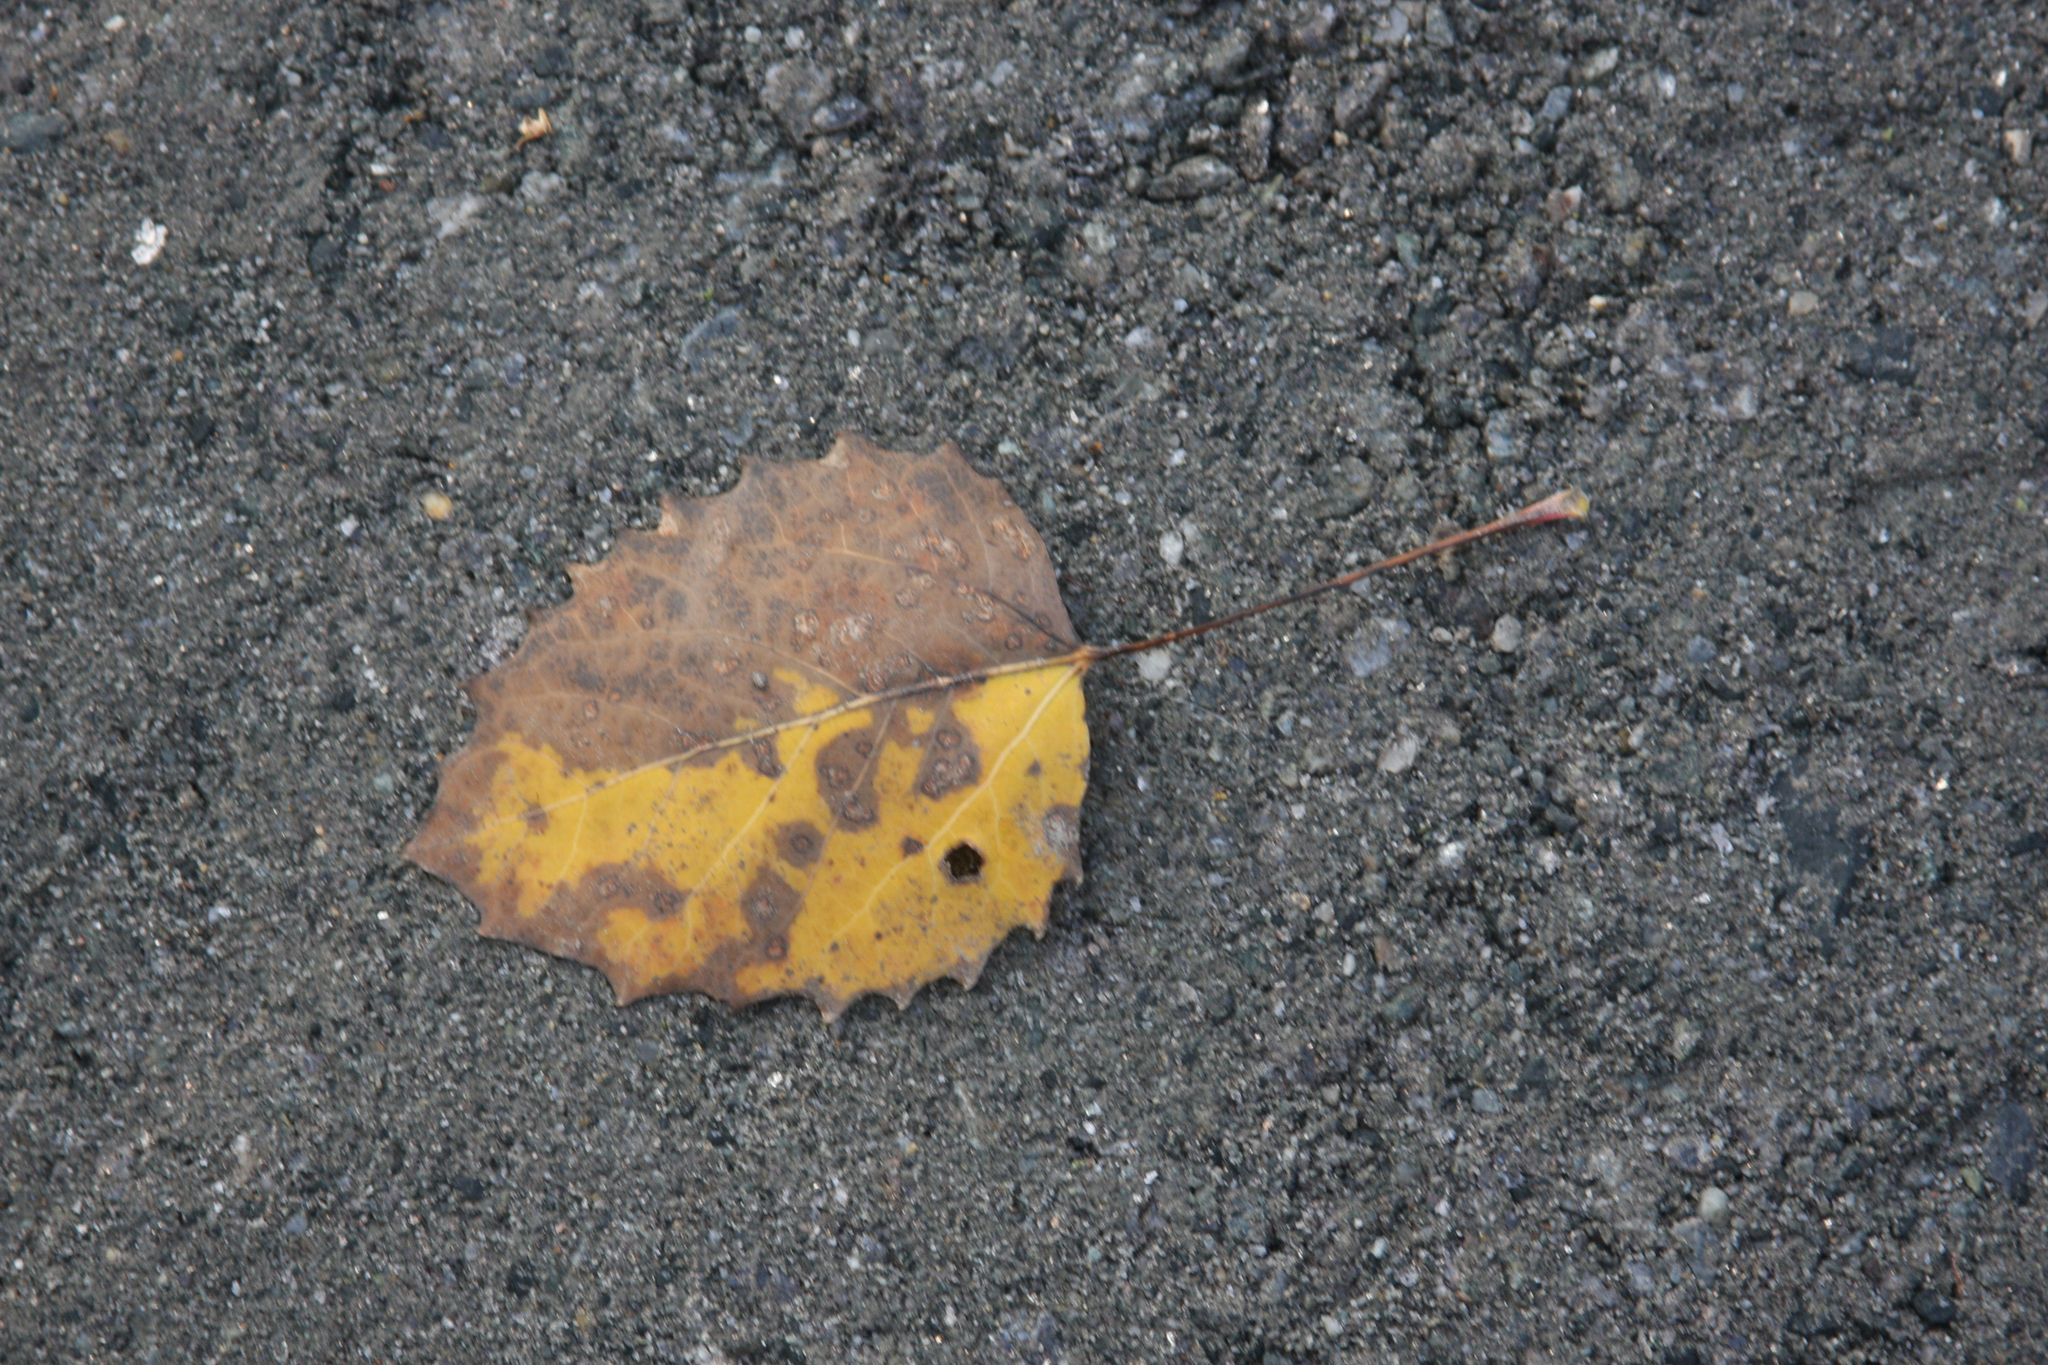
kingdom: Plantae
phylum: Tracheophyta
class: Magnoliopsida
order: Malpighiales
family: Salicaceae
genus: Populus
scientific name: Populus grandidentata
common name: Bigtooth aspen
